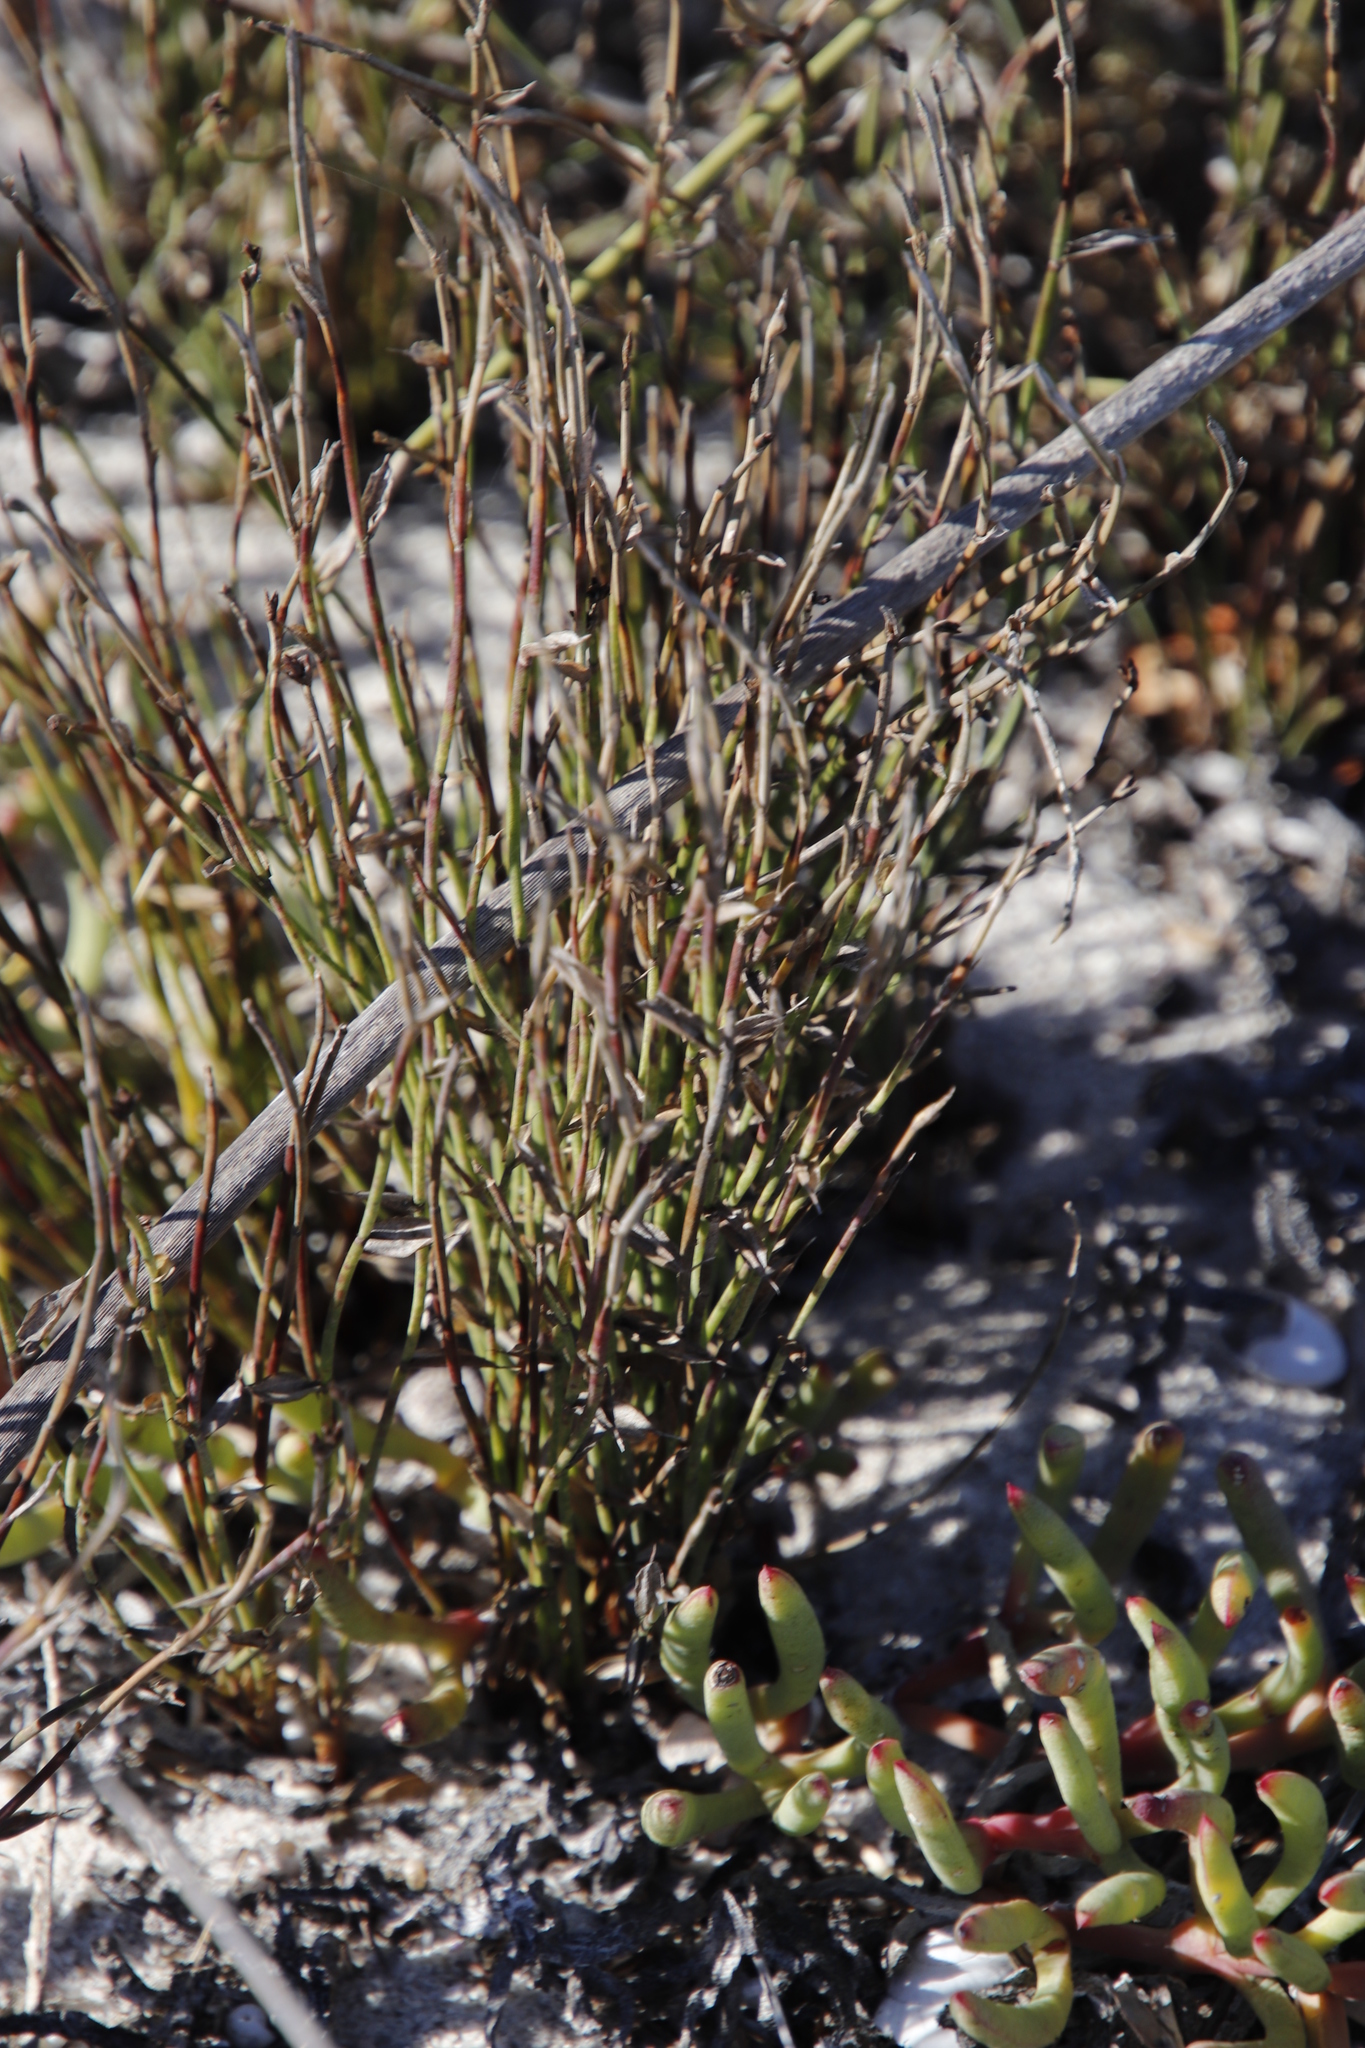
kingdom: Plantae
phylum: Tracheophyta
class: Liliopsida
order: Poales
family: Restionaceae
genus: Elegia
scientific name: Elegia microcarpa
